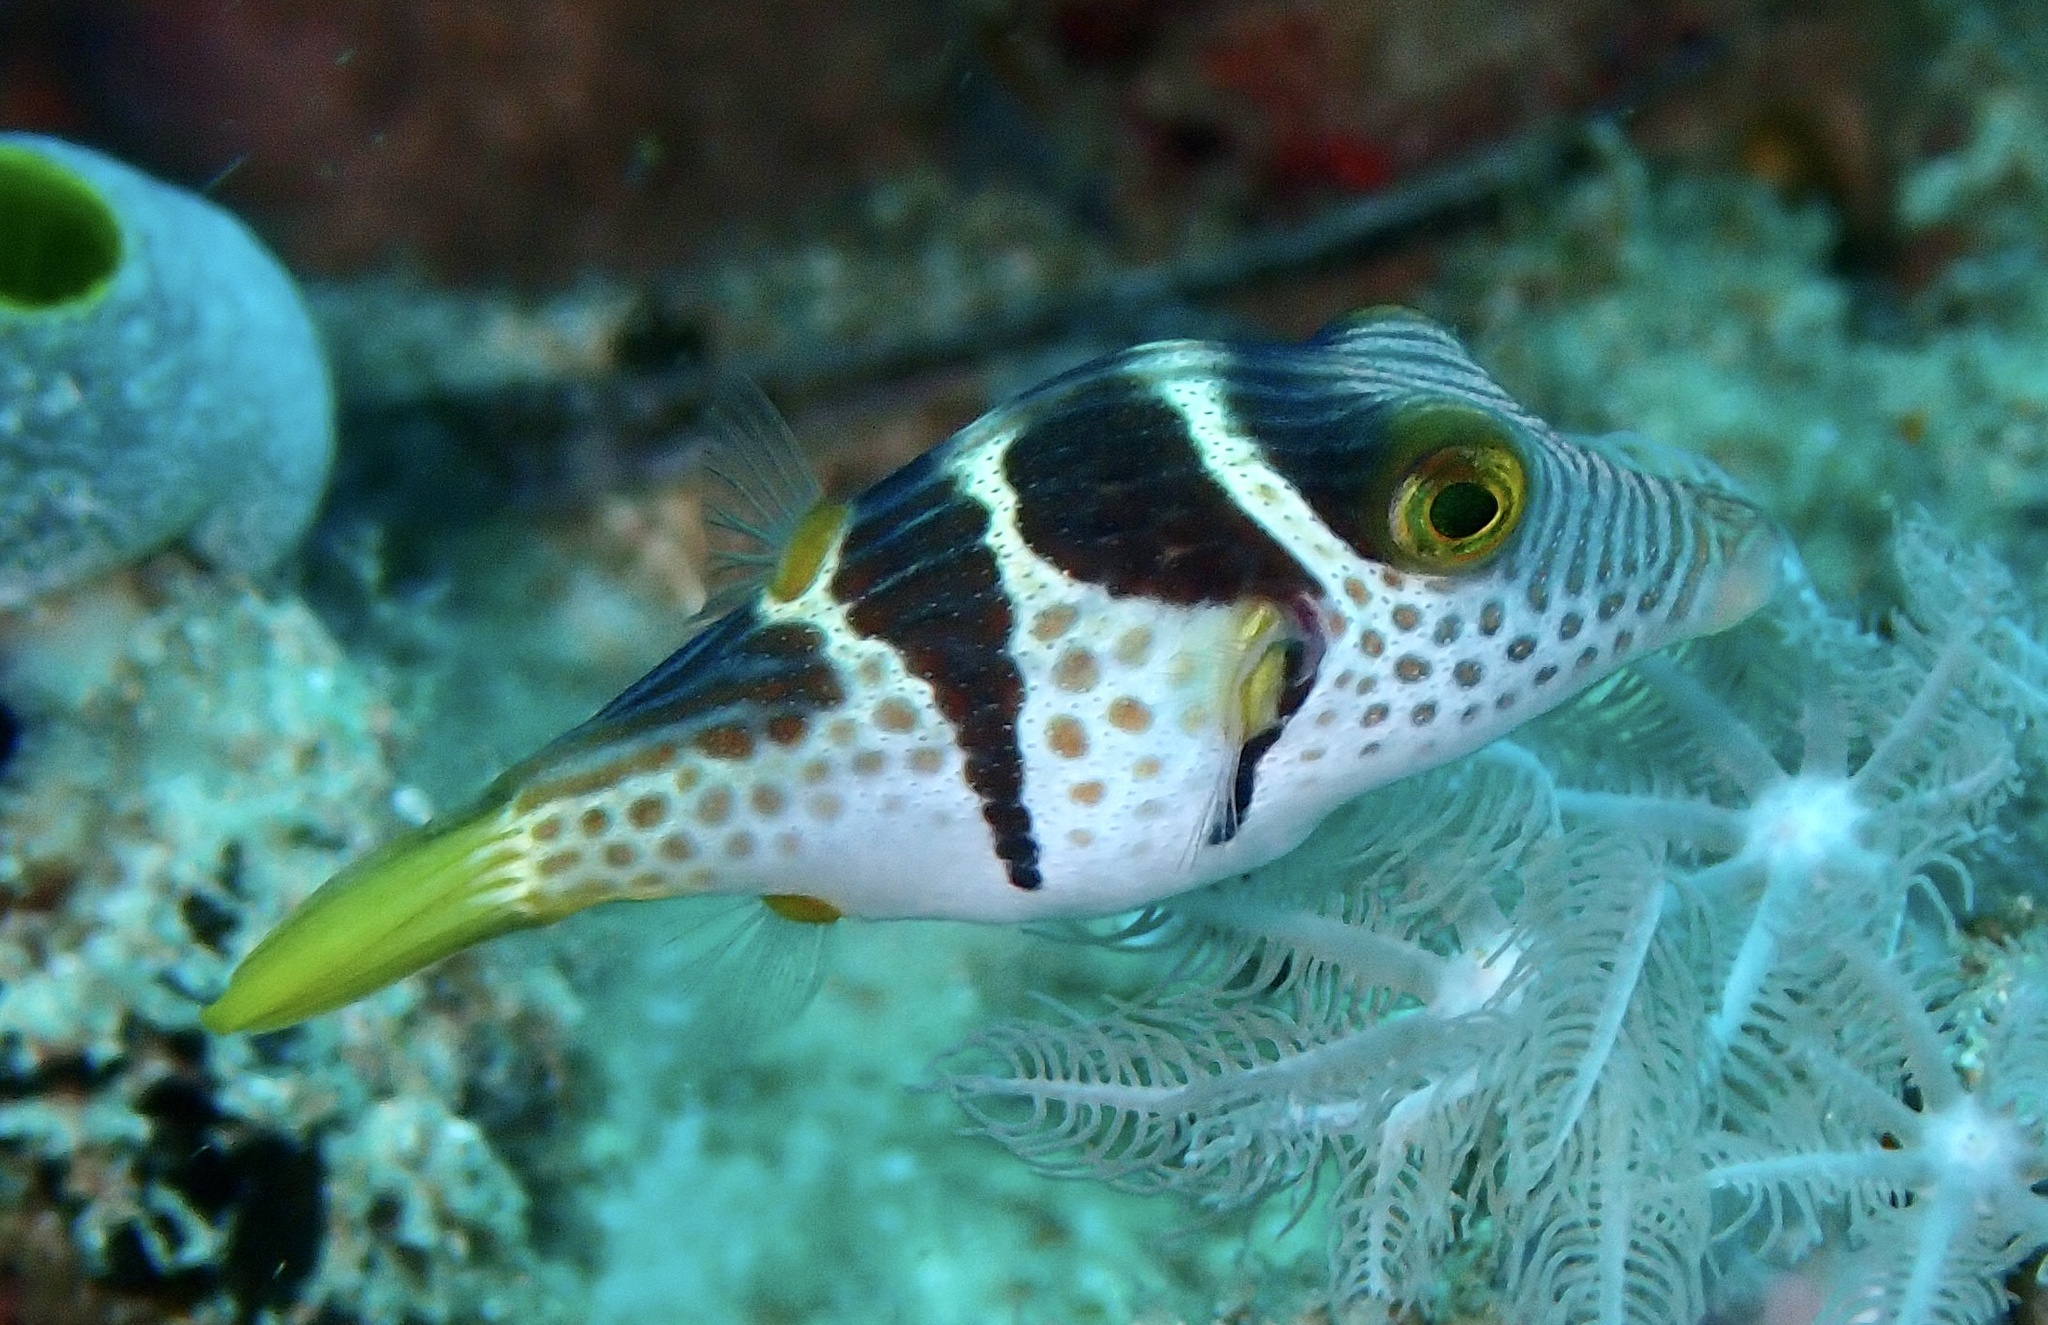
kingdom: Animalia
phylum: Chordata
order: Tetraodontiformes
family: Tetraodontidae
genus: Canthigaster
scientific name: Canthigaster valentini
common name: Banded toby
